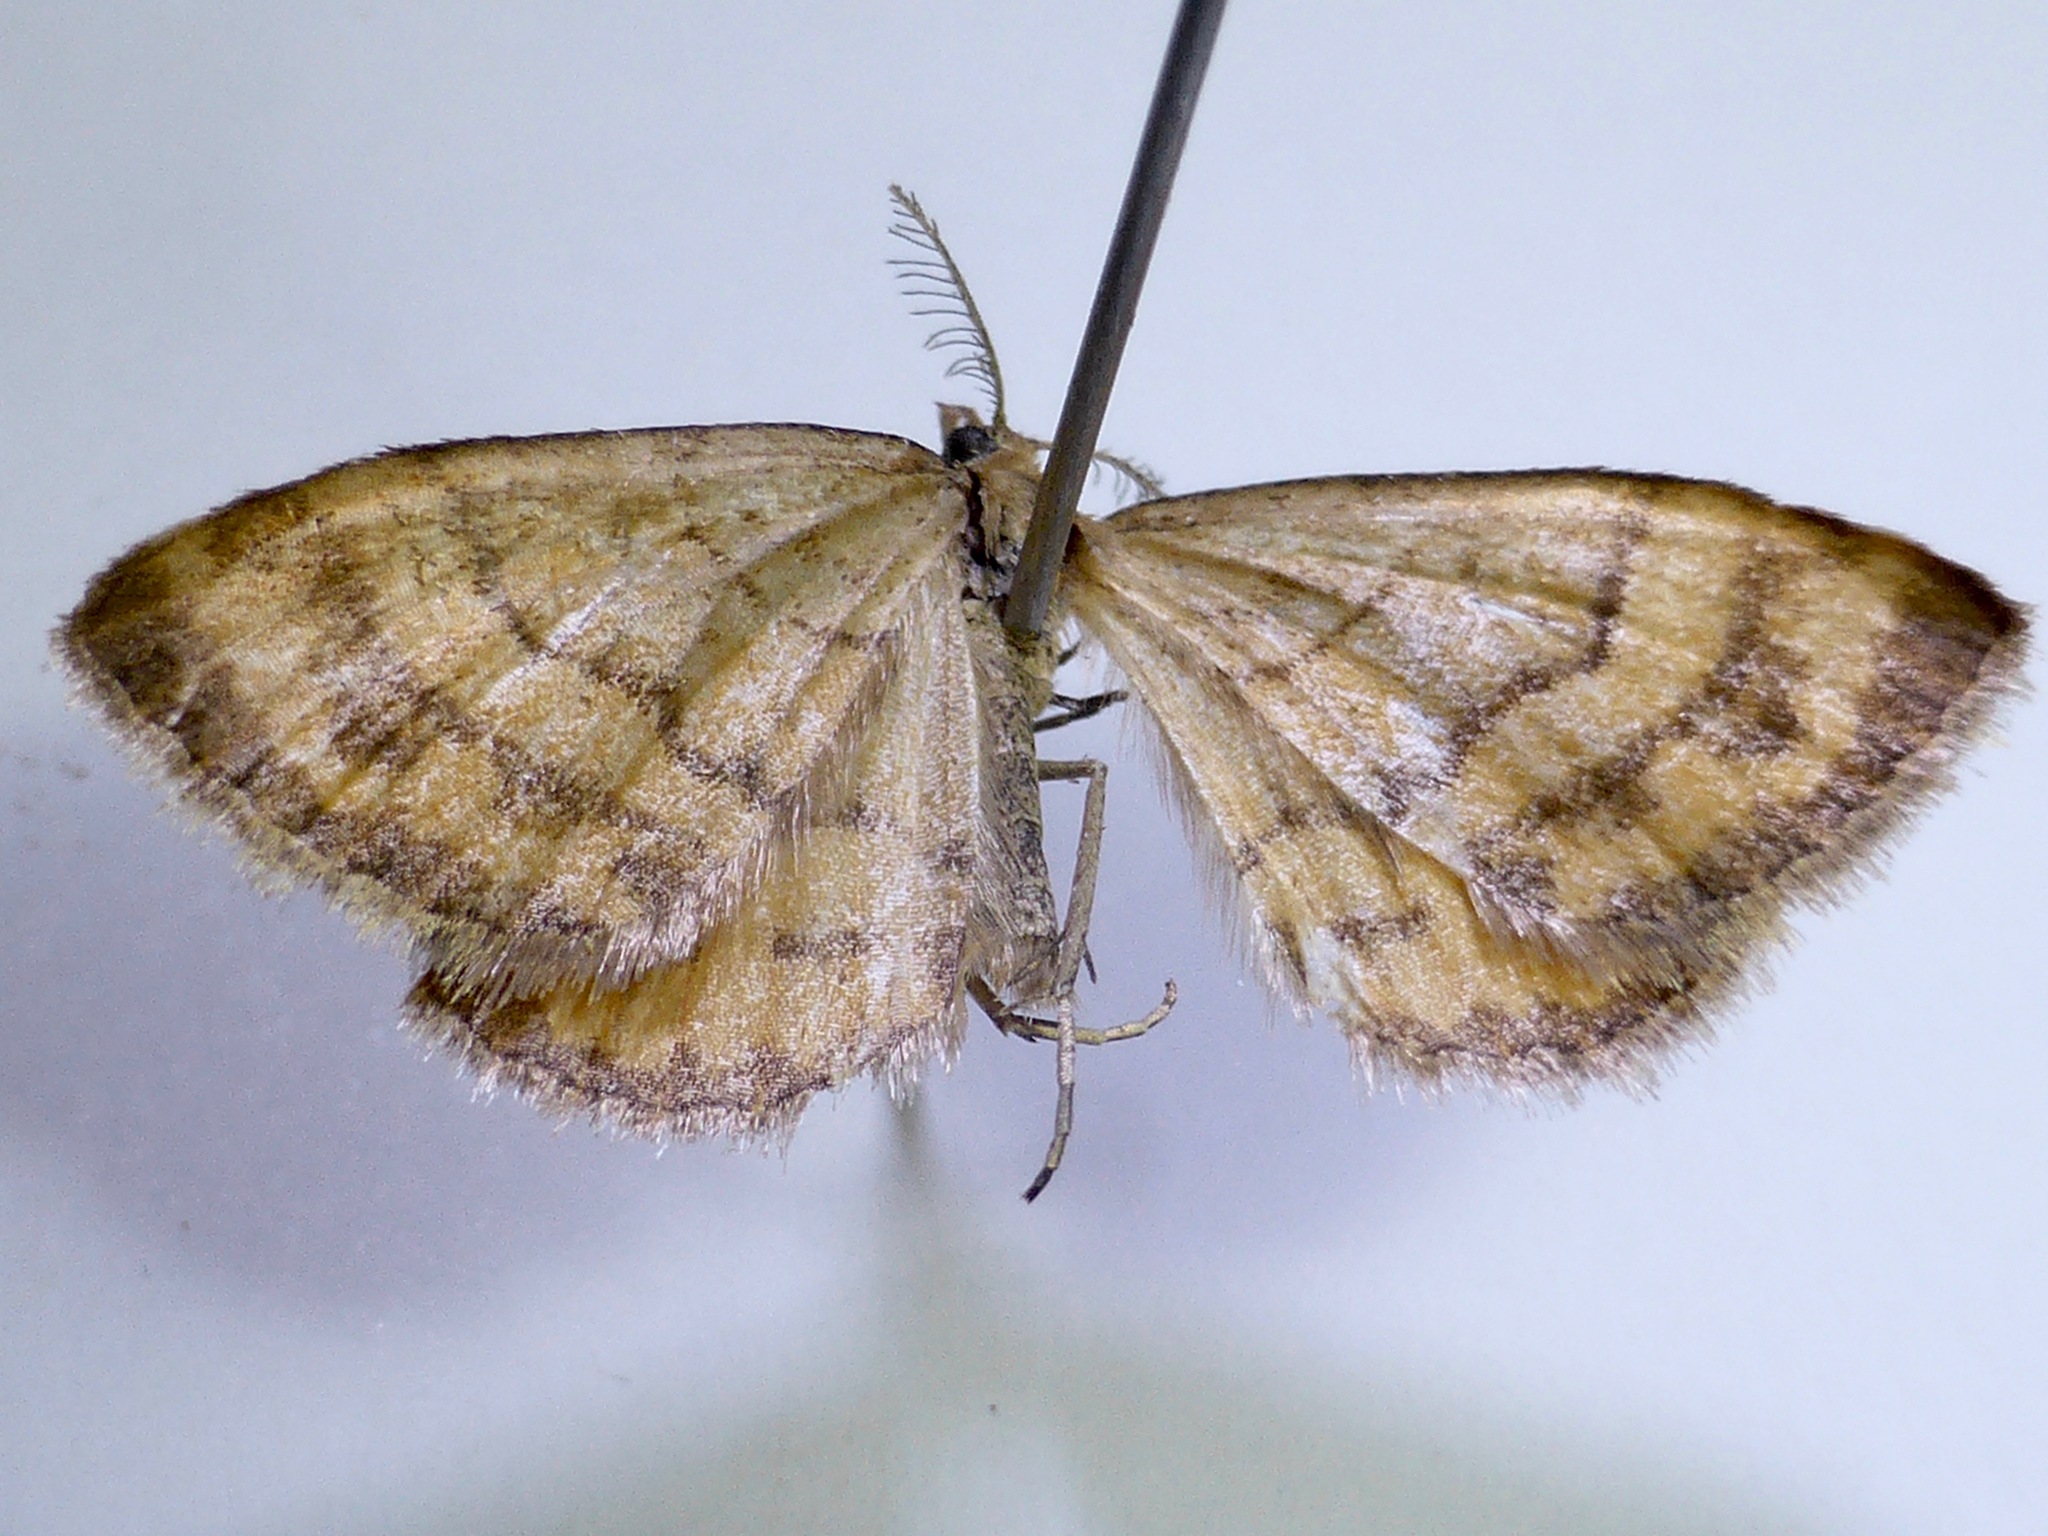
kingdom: Animalia
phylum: Arthropoda
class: Insecta
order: Lepidoptera
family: Geometridae
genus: Asaphodes
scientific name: Asaphodes abrogata
